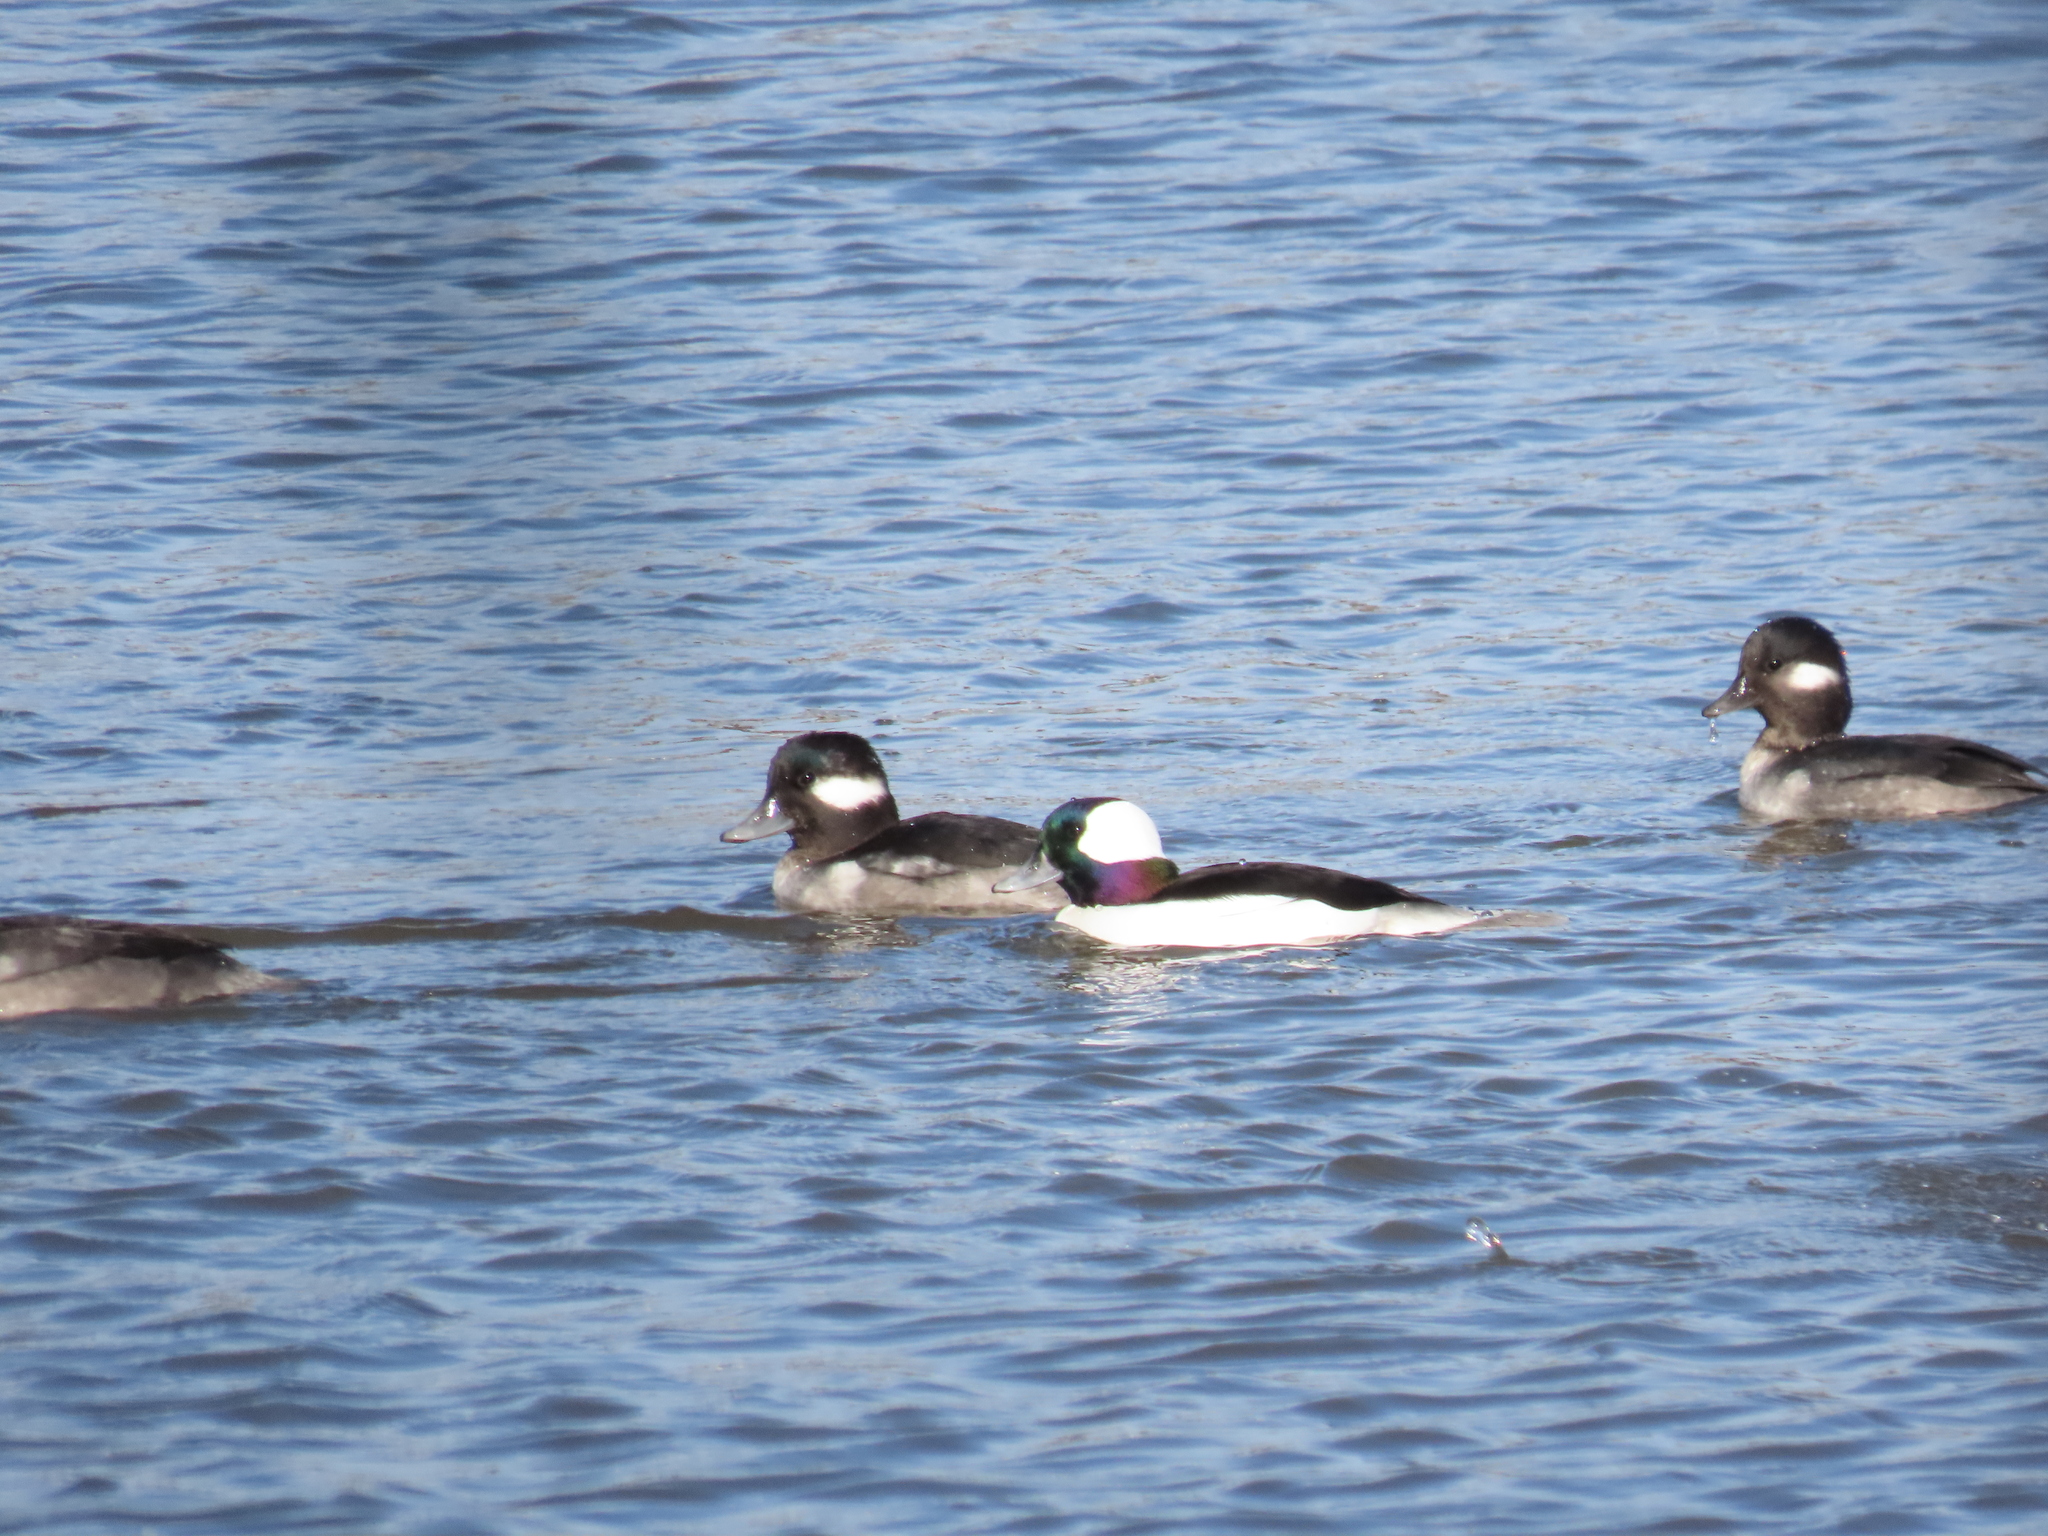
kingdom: Animalia
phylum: Chordata
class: Aves
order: Anseriformes
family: Anatidae
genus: Bucephala
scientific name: Bucephala albeola
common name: Bufflehead
